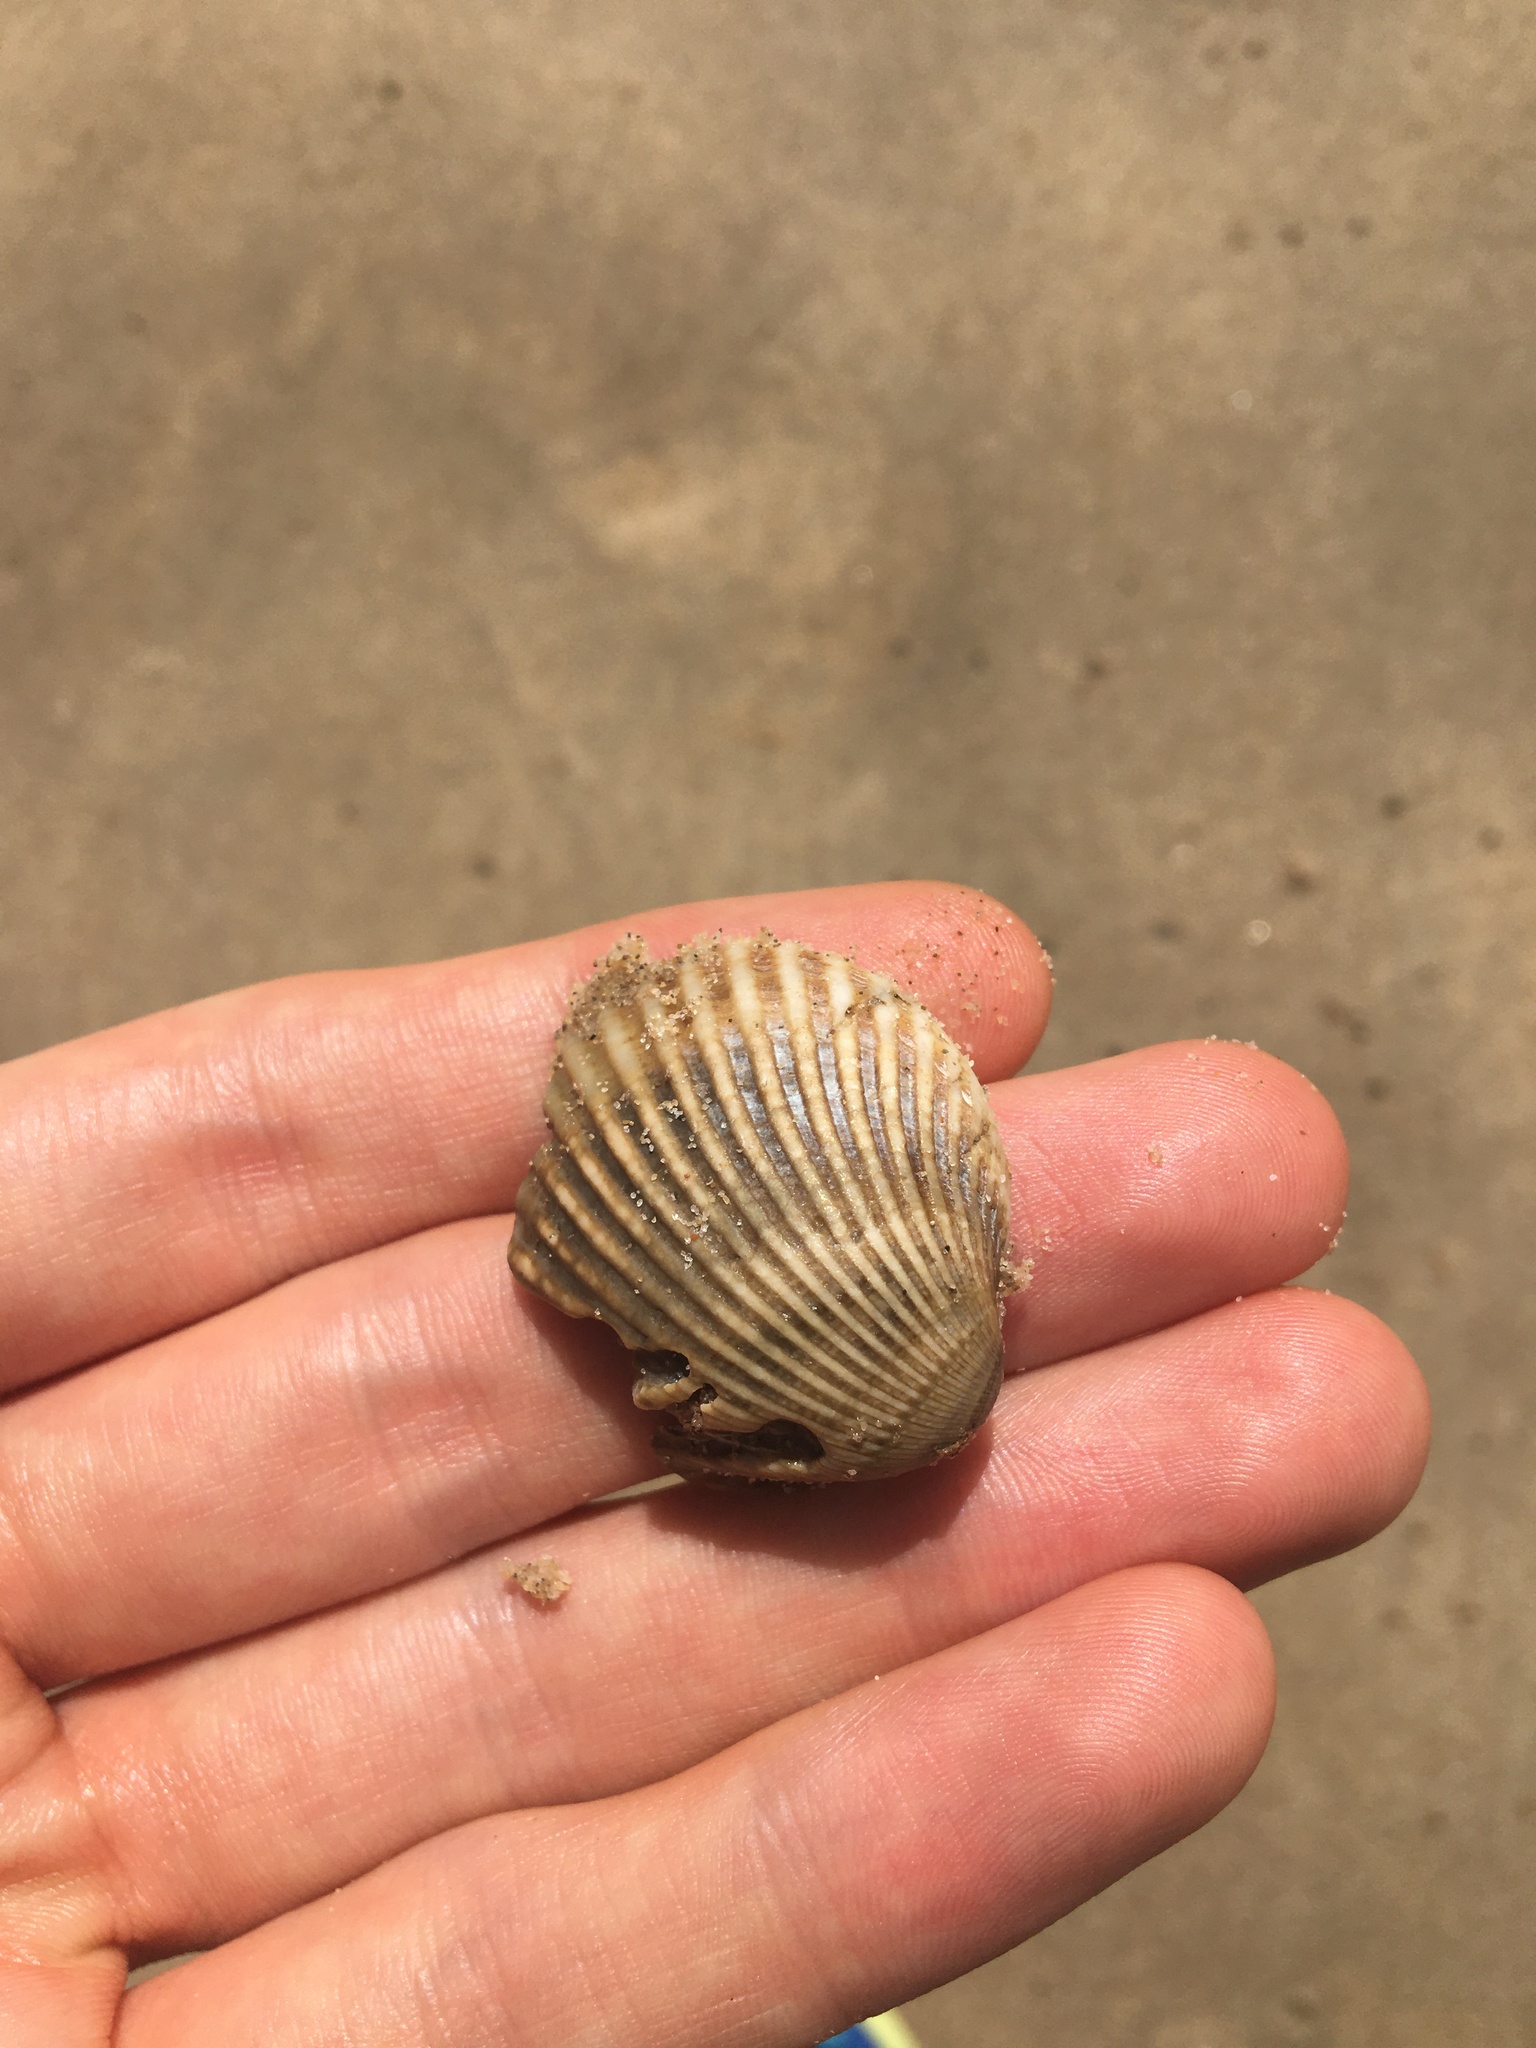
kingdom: Animalia
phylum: Mollusca
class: Bivalvia
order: Arcida
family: Arcidae
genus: Anadara
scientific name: Anadara trapezia
